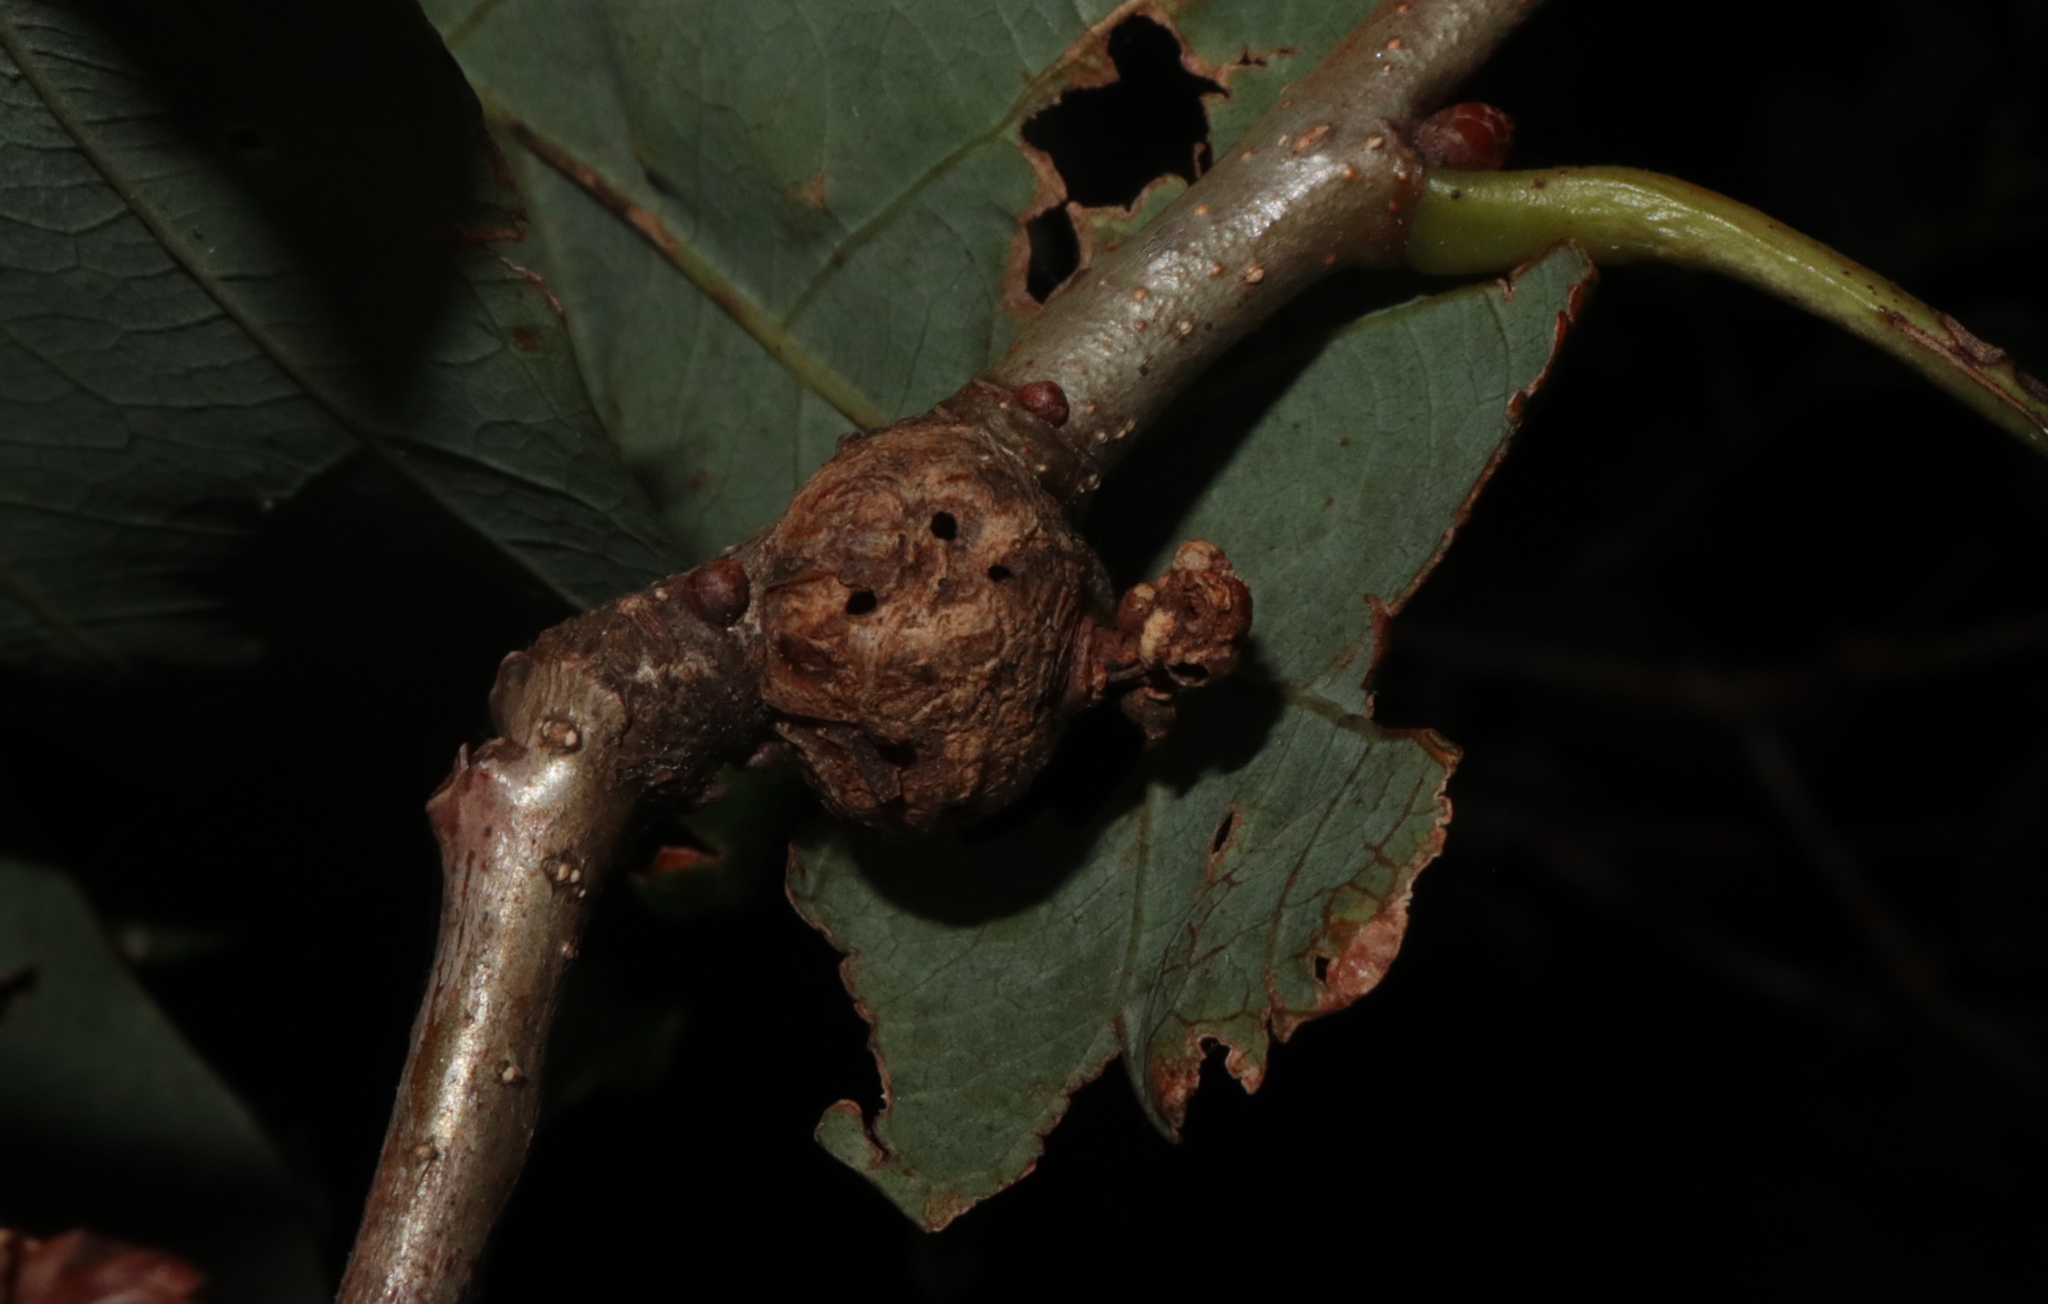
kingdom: Animalia
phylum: Arthropoda
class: Insecta
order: Hymenoptera
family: Cynipidae
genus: Loxaulus
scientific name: Loxaulus
